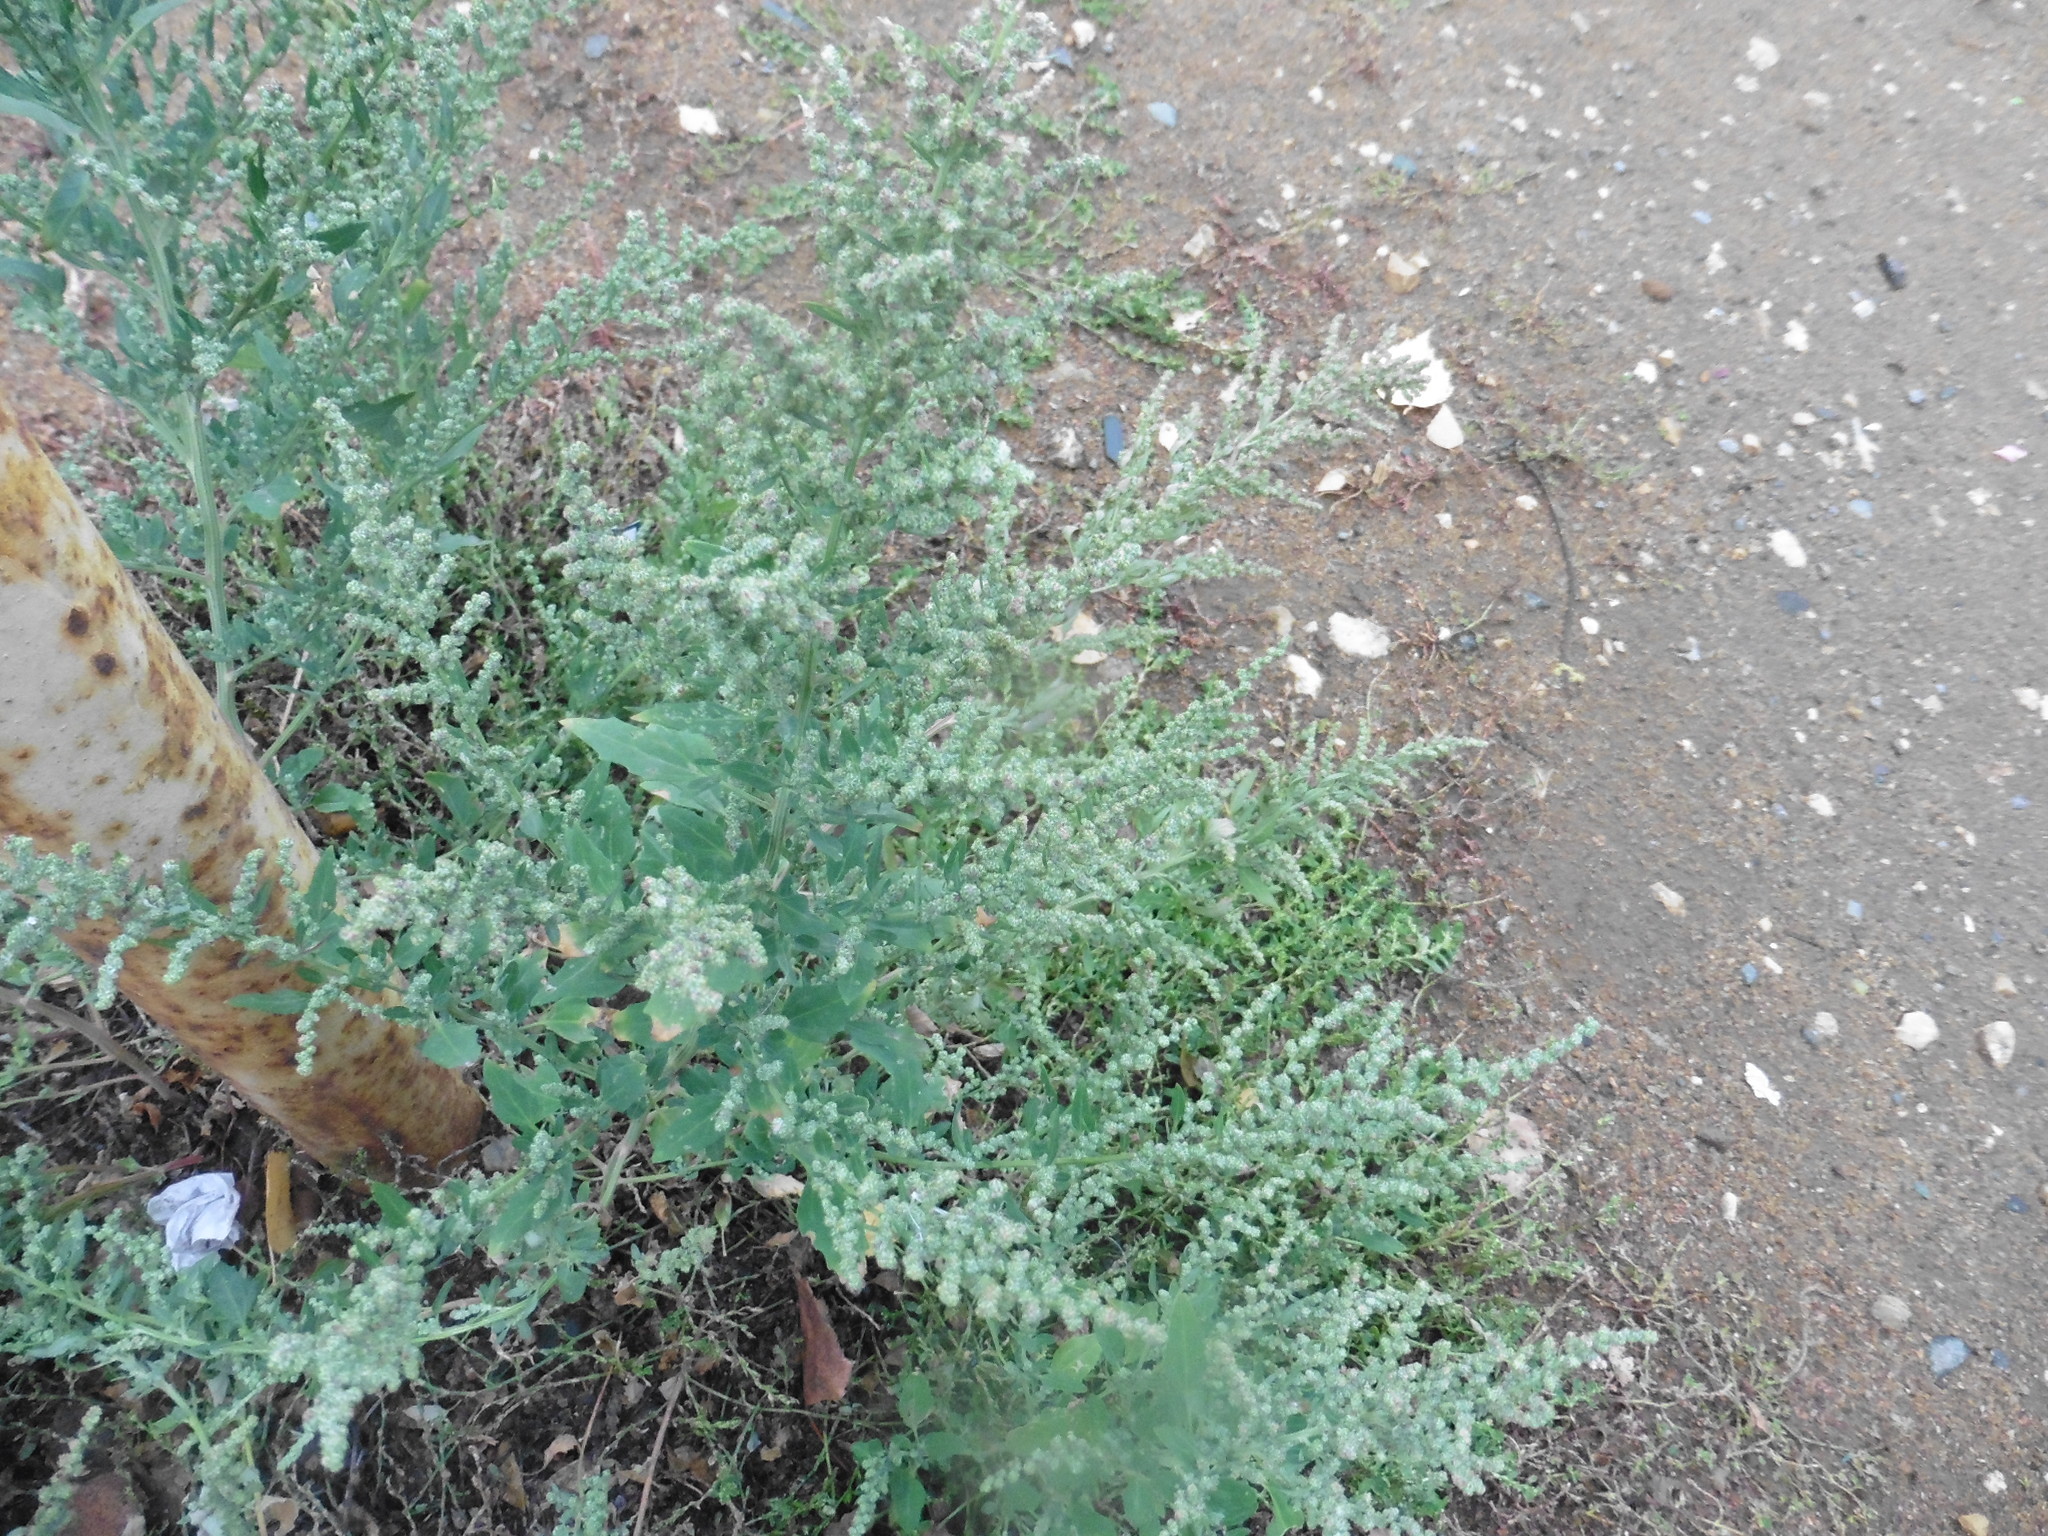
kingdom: Plantae
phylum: Tracheophyta
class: Magnoliopsida
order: Caryophyllales
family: Amaranthaceae
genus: Chenopodium
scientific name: Chenopodium album
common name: Fat-hen
